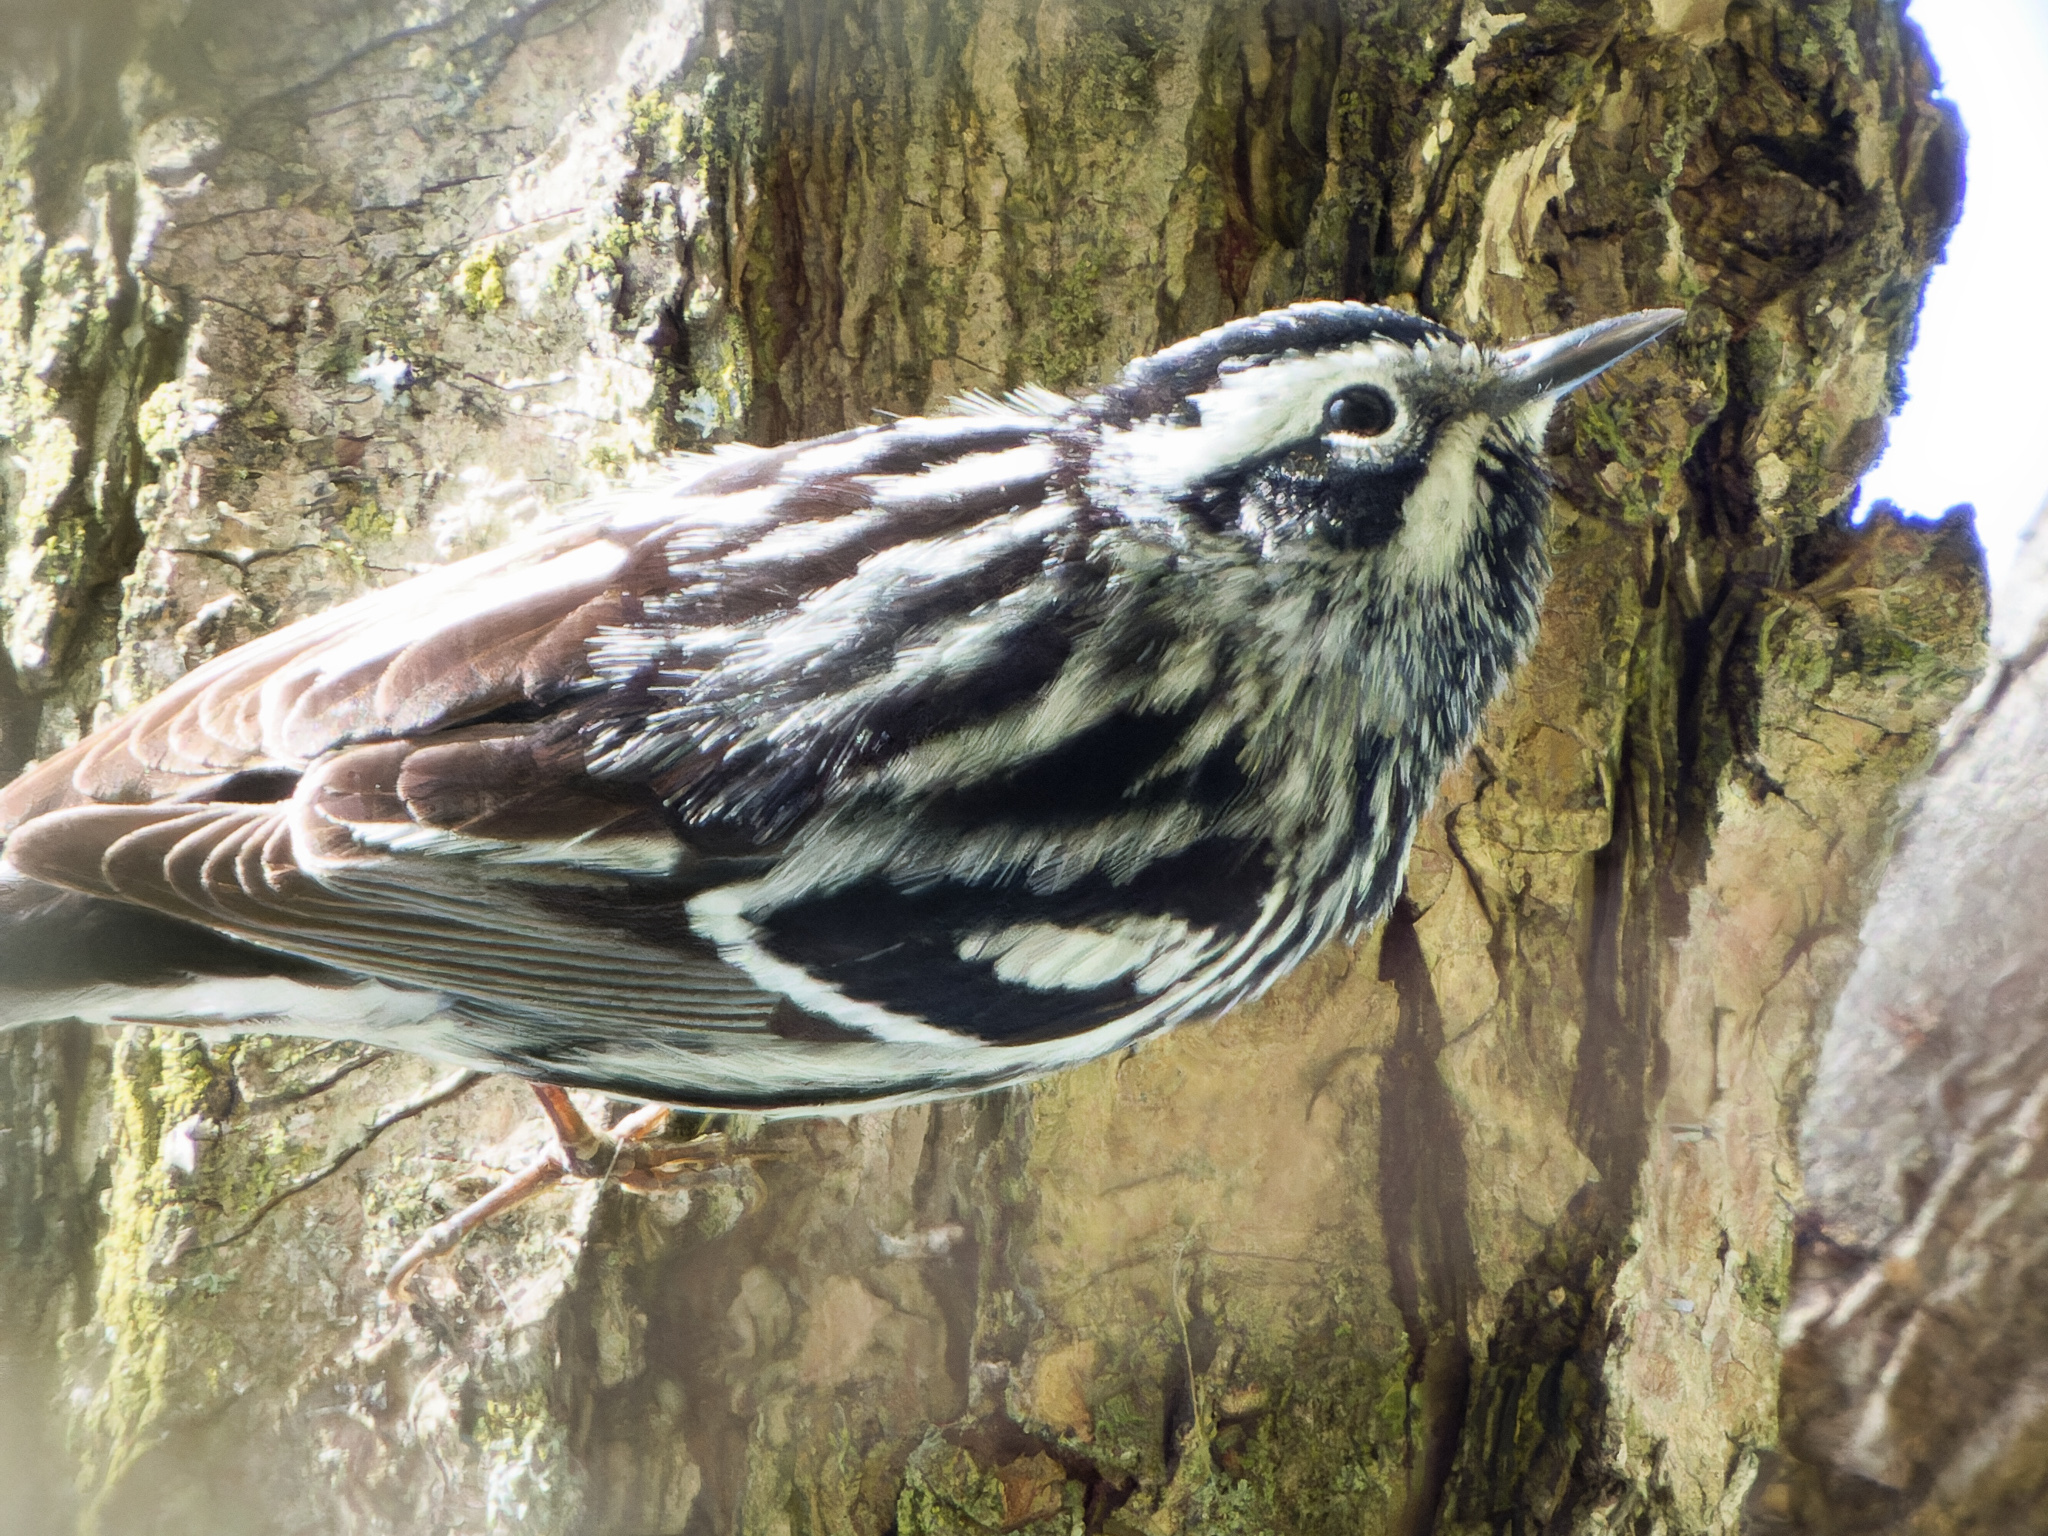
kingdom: Animalia
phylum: Chordata
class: Aves
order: Passeriformes
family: Parulidae
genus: Mniotilta
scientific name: Mniotilta varia
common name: Black-and-white warbler
